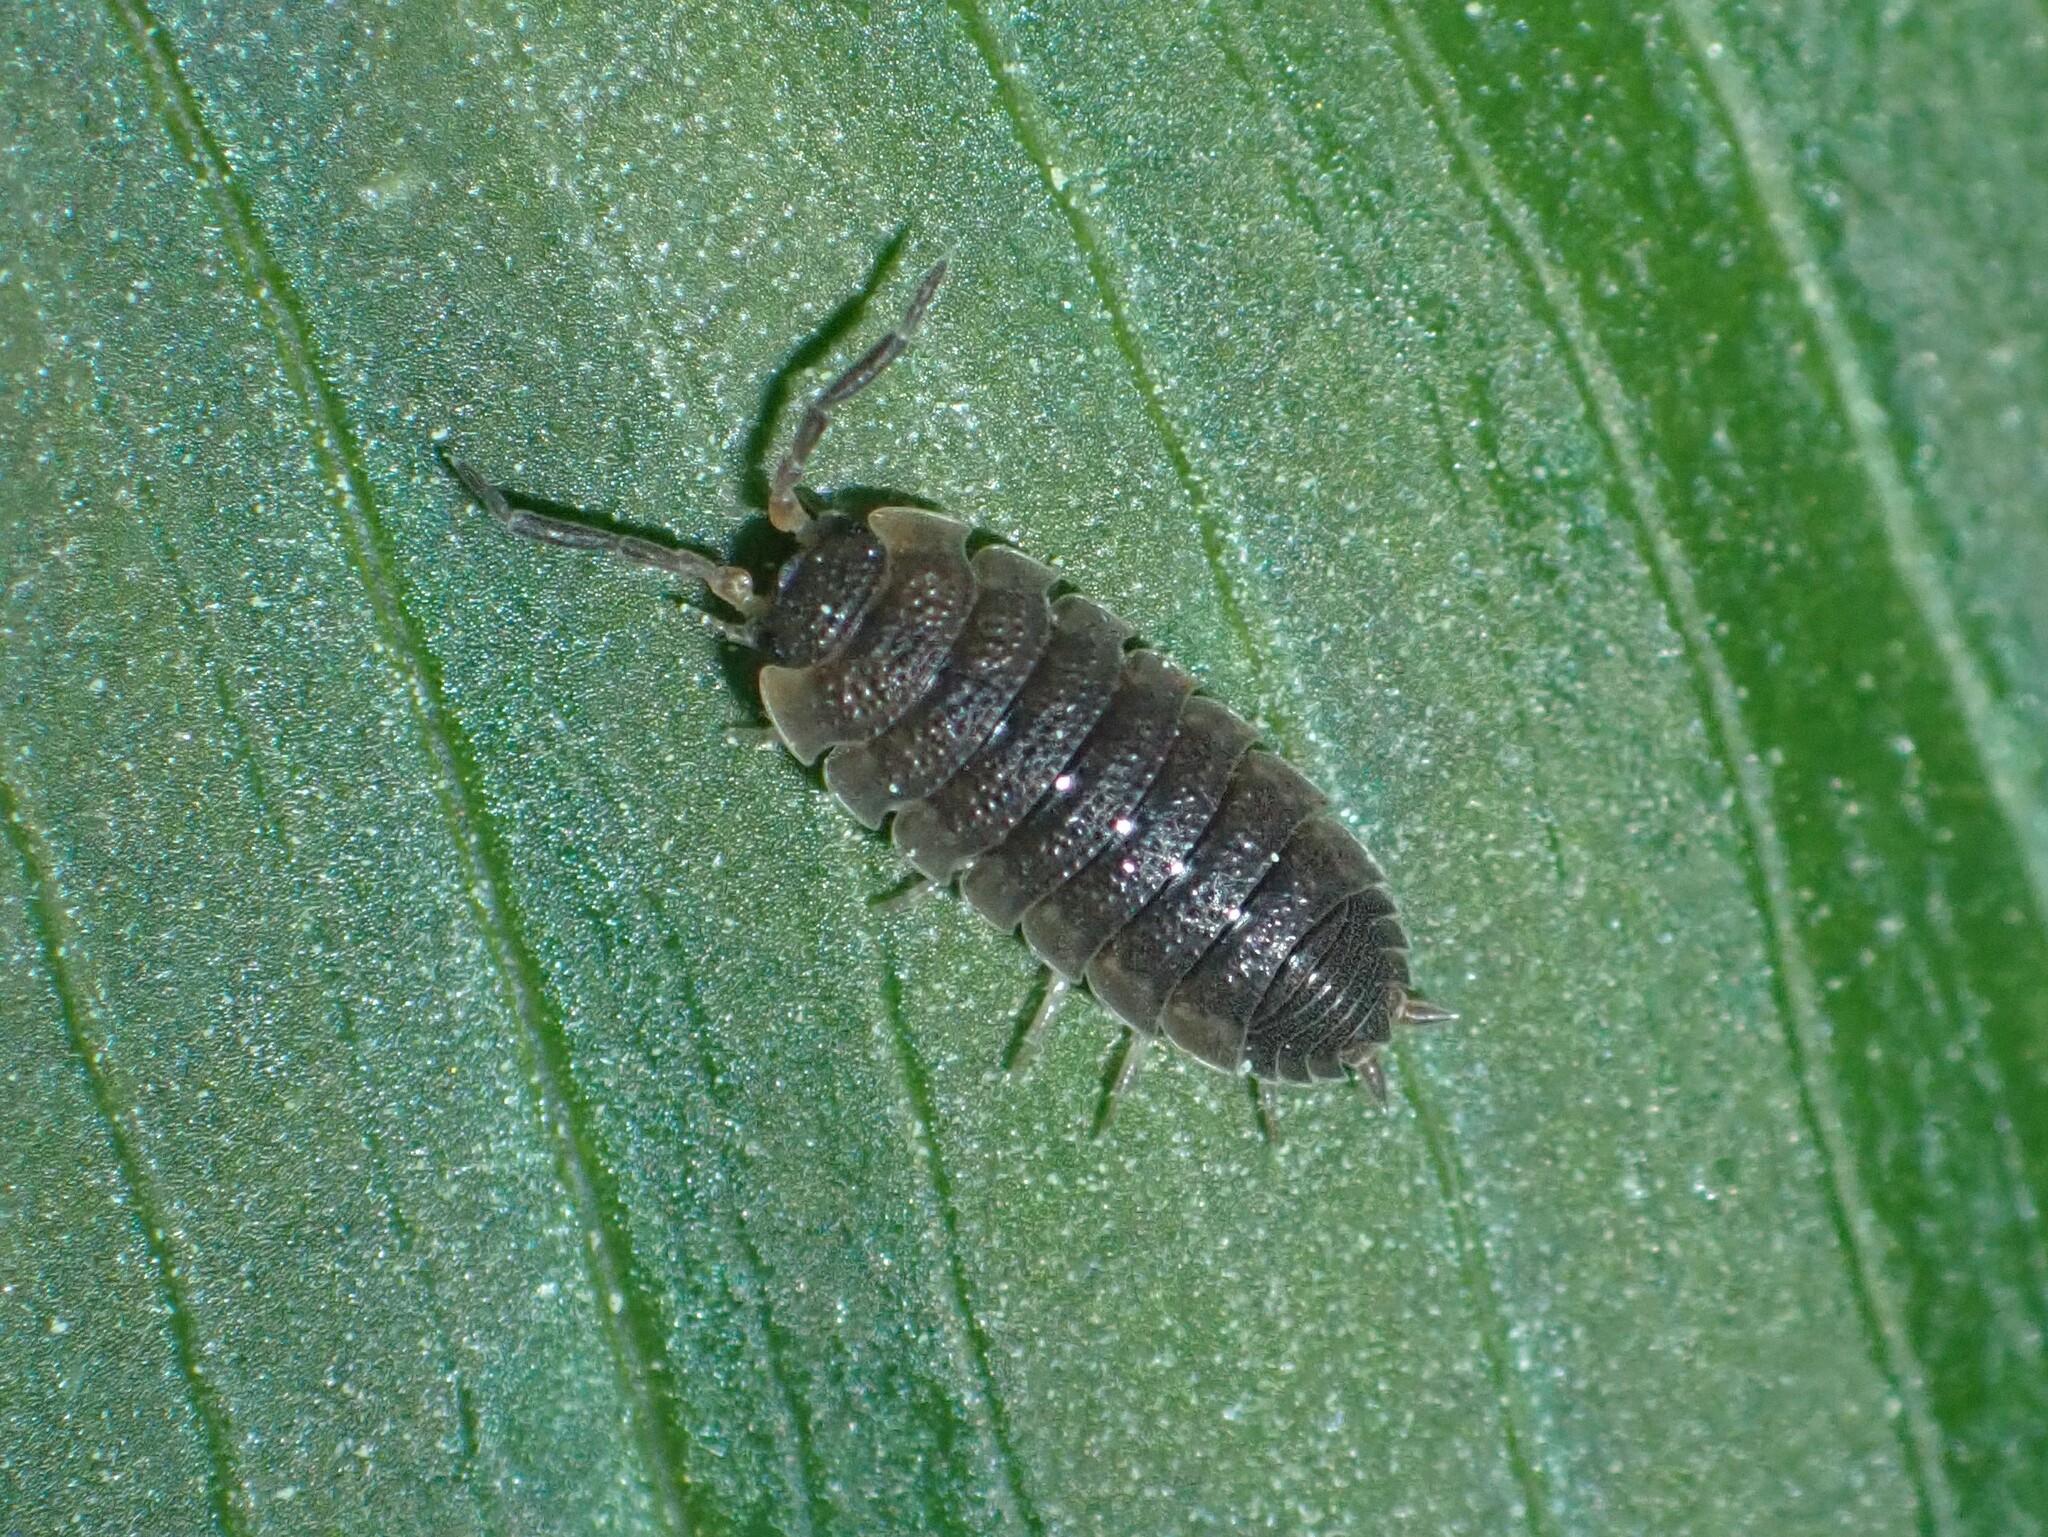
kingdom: Animalia
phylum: Arthropoda
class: Malacostraca
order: Isopoda
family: Porcellionidae
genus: Porcellio
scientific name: Porcellio scaber
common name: Common rough woodlouse
